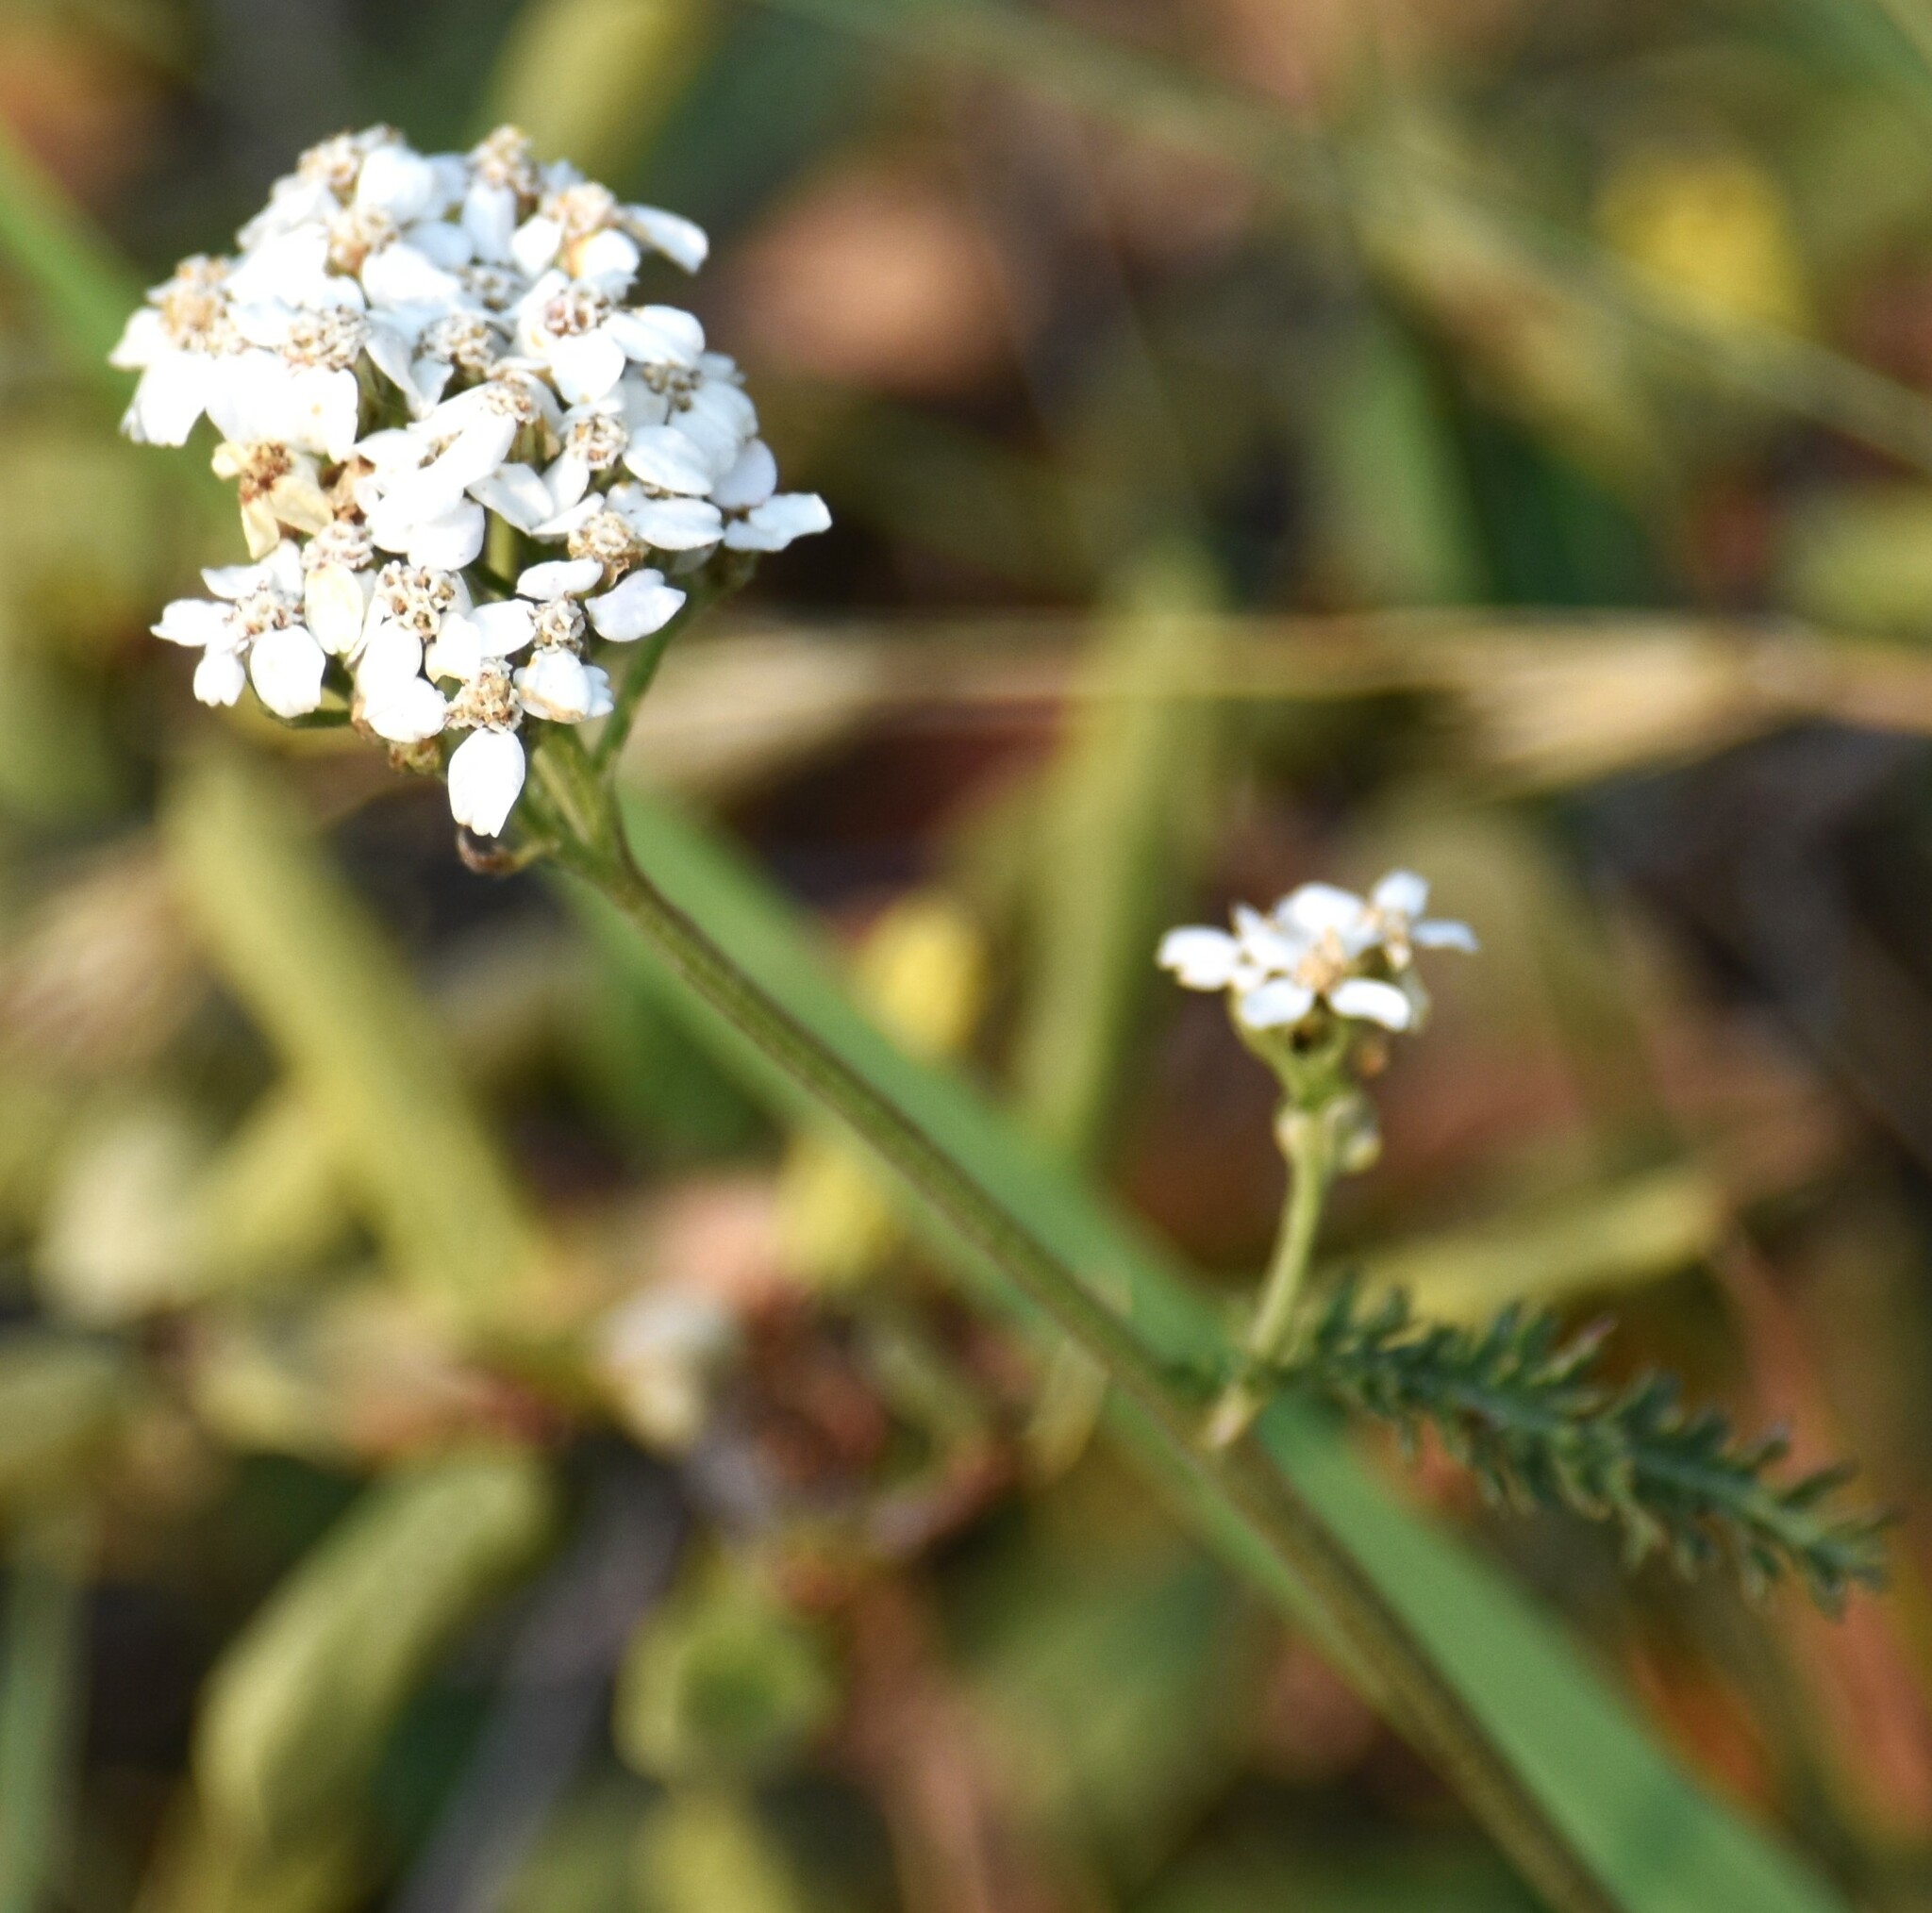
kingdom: Plantae
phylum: Tracheophyta
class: Magnoliopsida
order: Asterales
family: Asteraceae
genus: Achillea
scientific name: Achillea millefolium
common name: Yarrow
